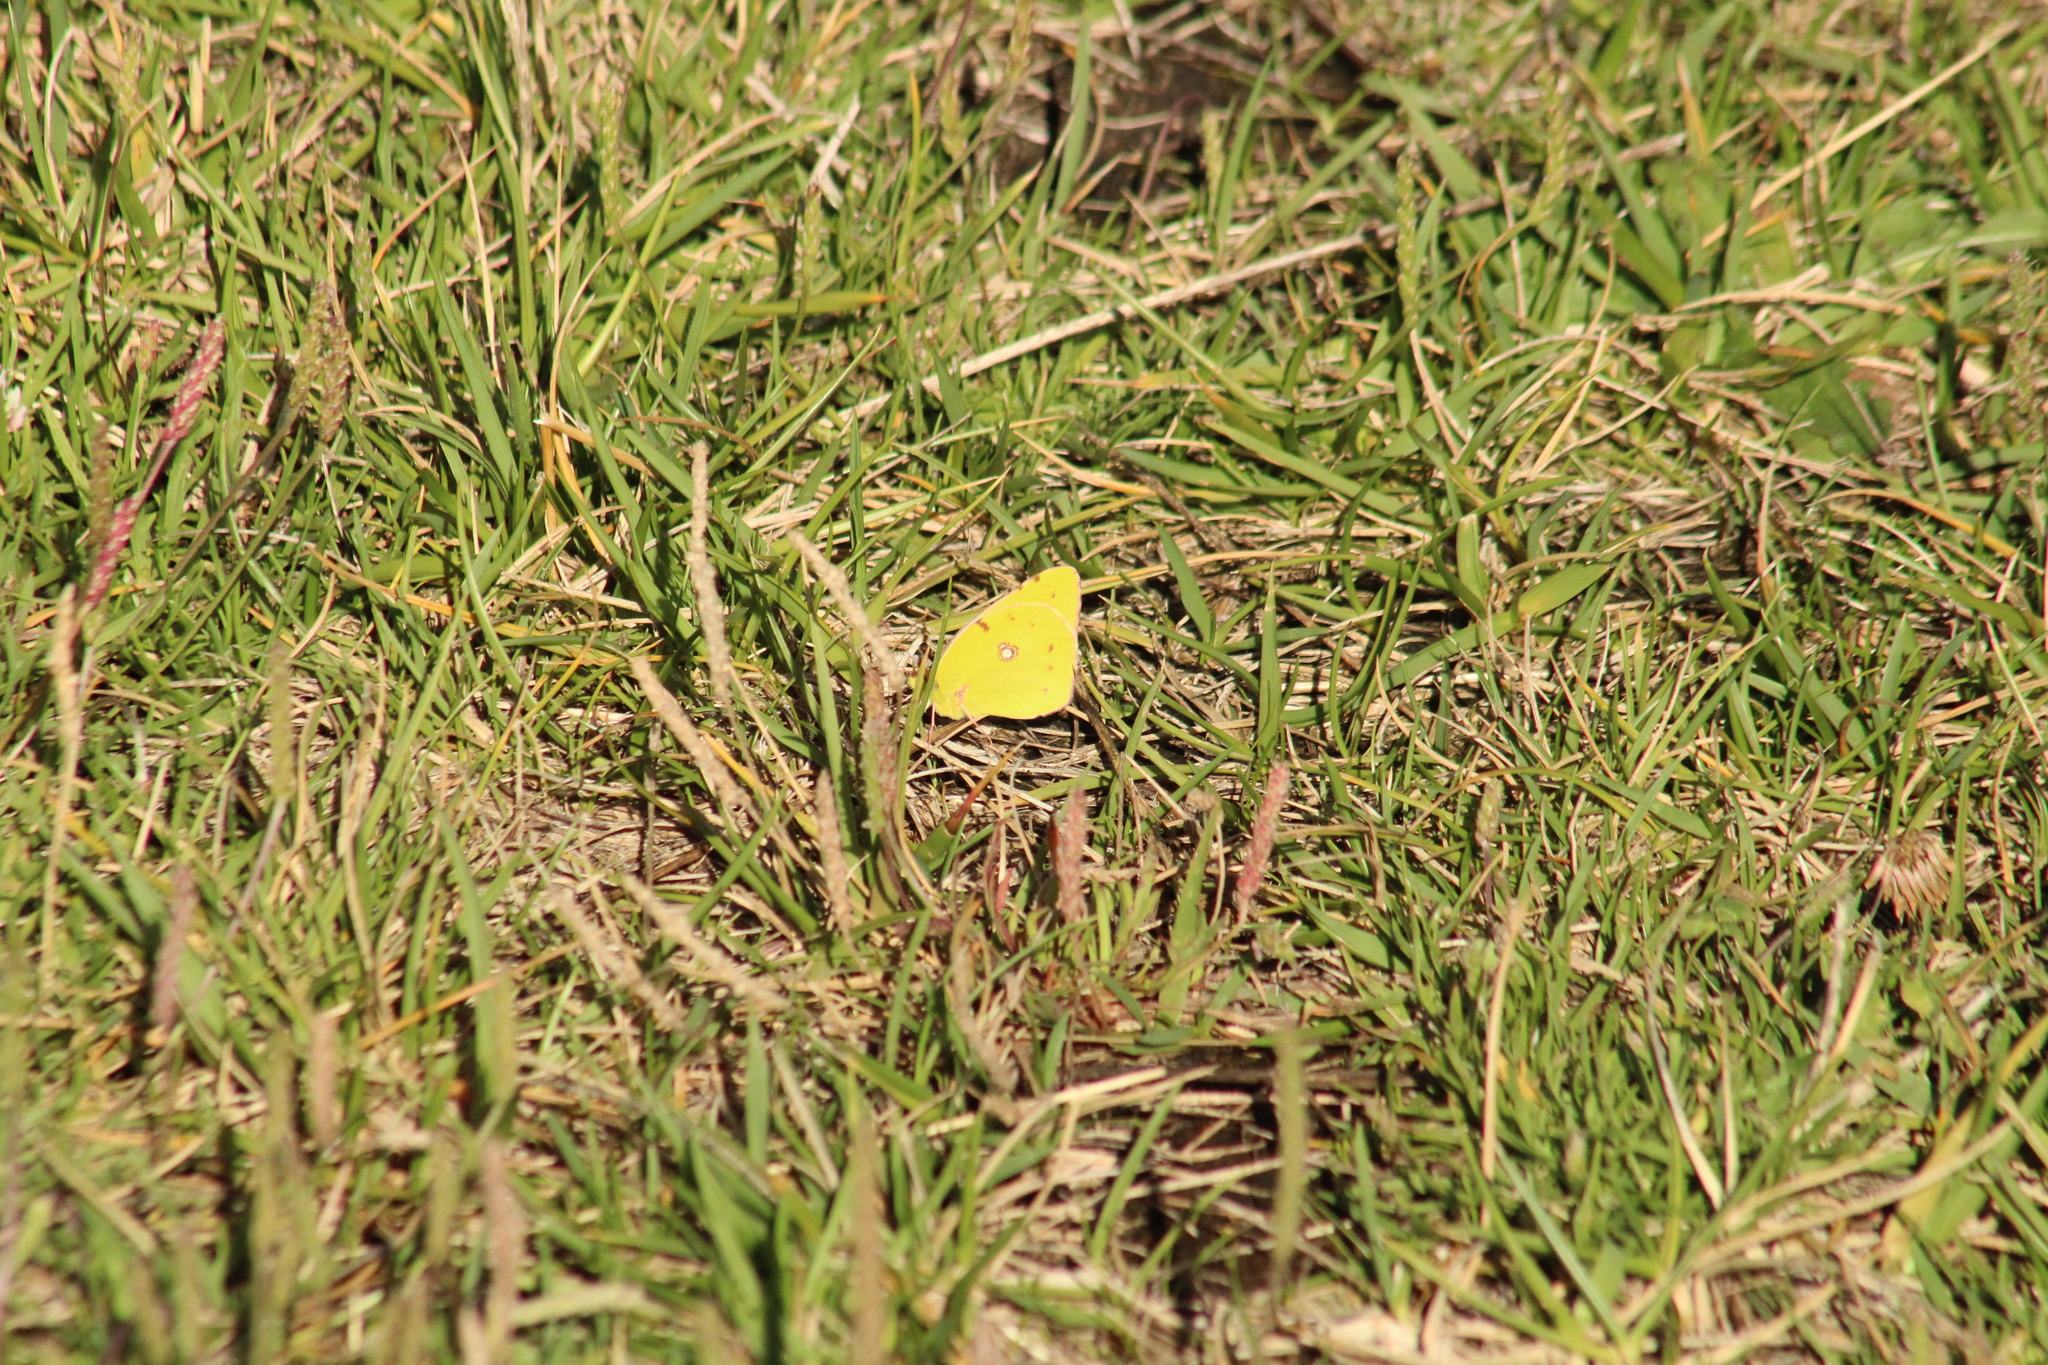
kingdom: Animalia
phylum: Arthropoda
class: Insecta
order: Lepidoptera
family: Pieridae
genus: Colias
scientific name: Colias croceus
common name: Clouded yellow
